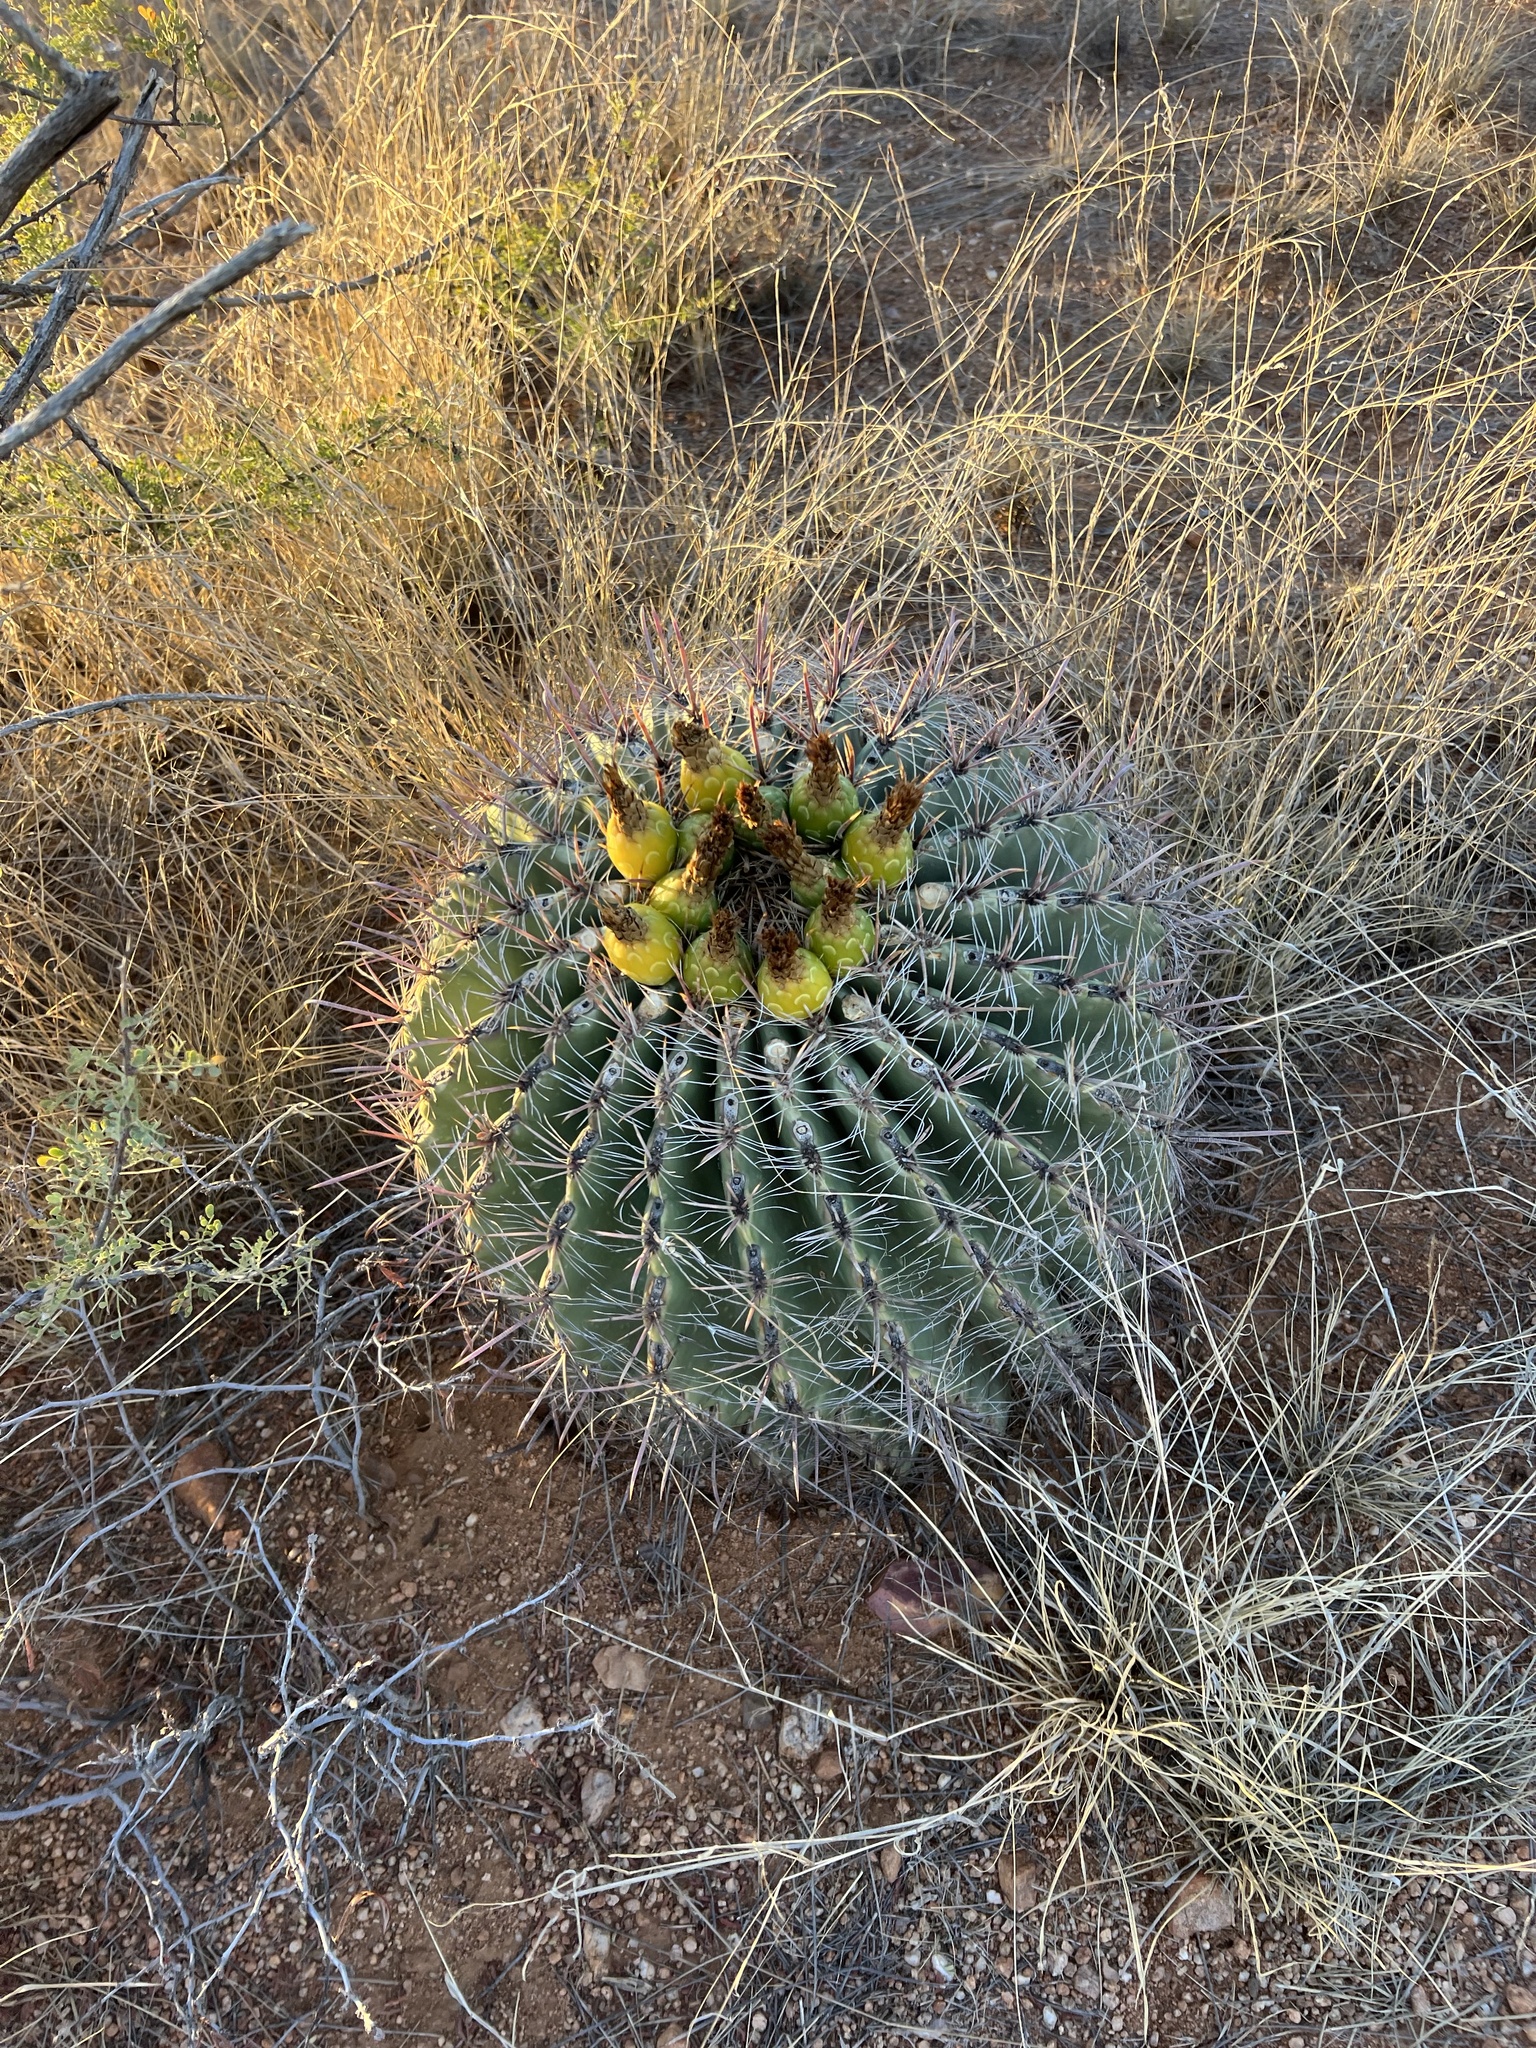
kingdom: Plantae
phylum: Tracheophyta
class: Magnoliopsida
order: Caryophyllales
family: Cactaceae
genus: Ferocactus
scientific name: Ferocactus wislizeni
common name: Candy barrel cactus
